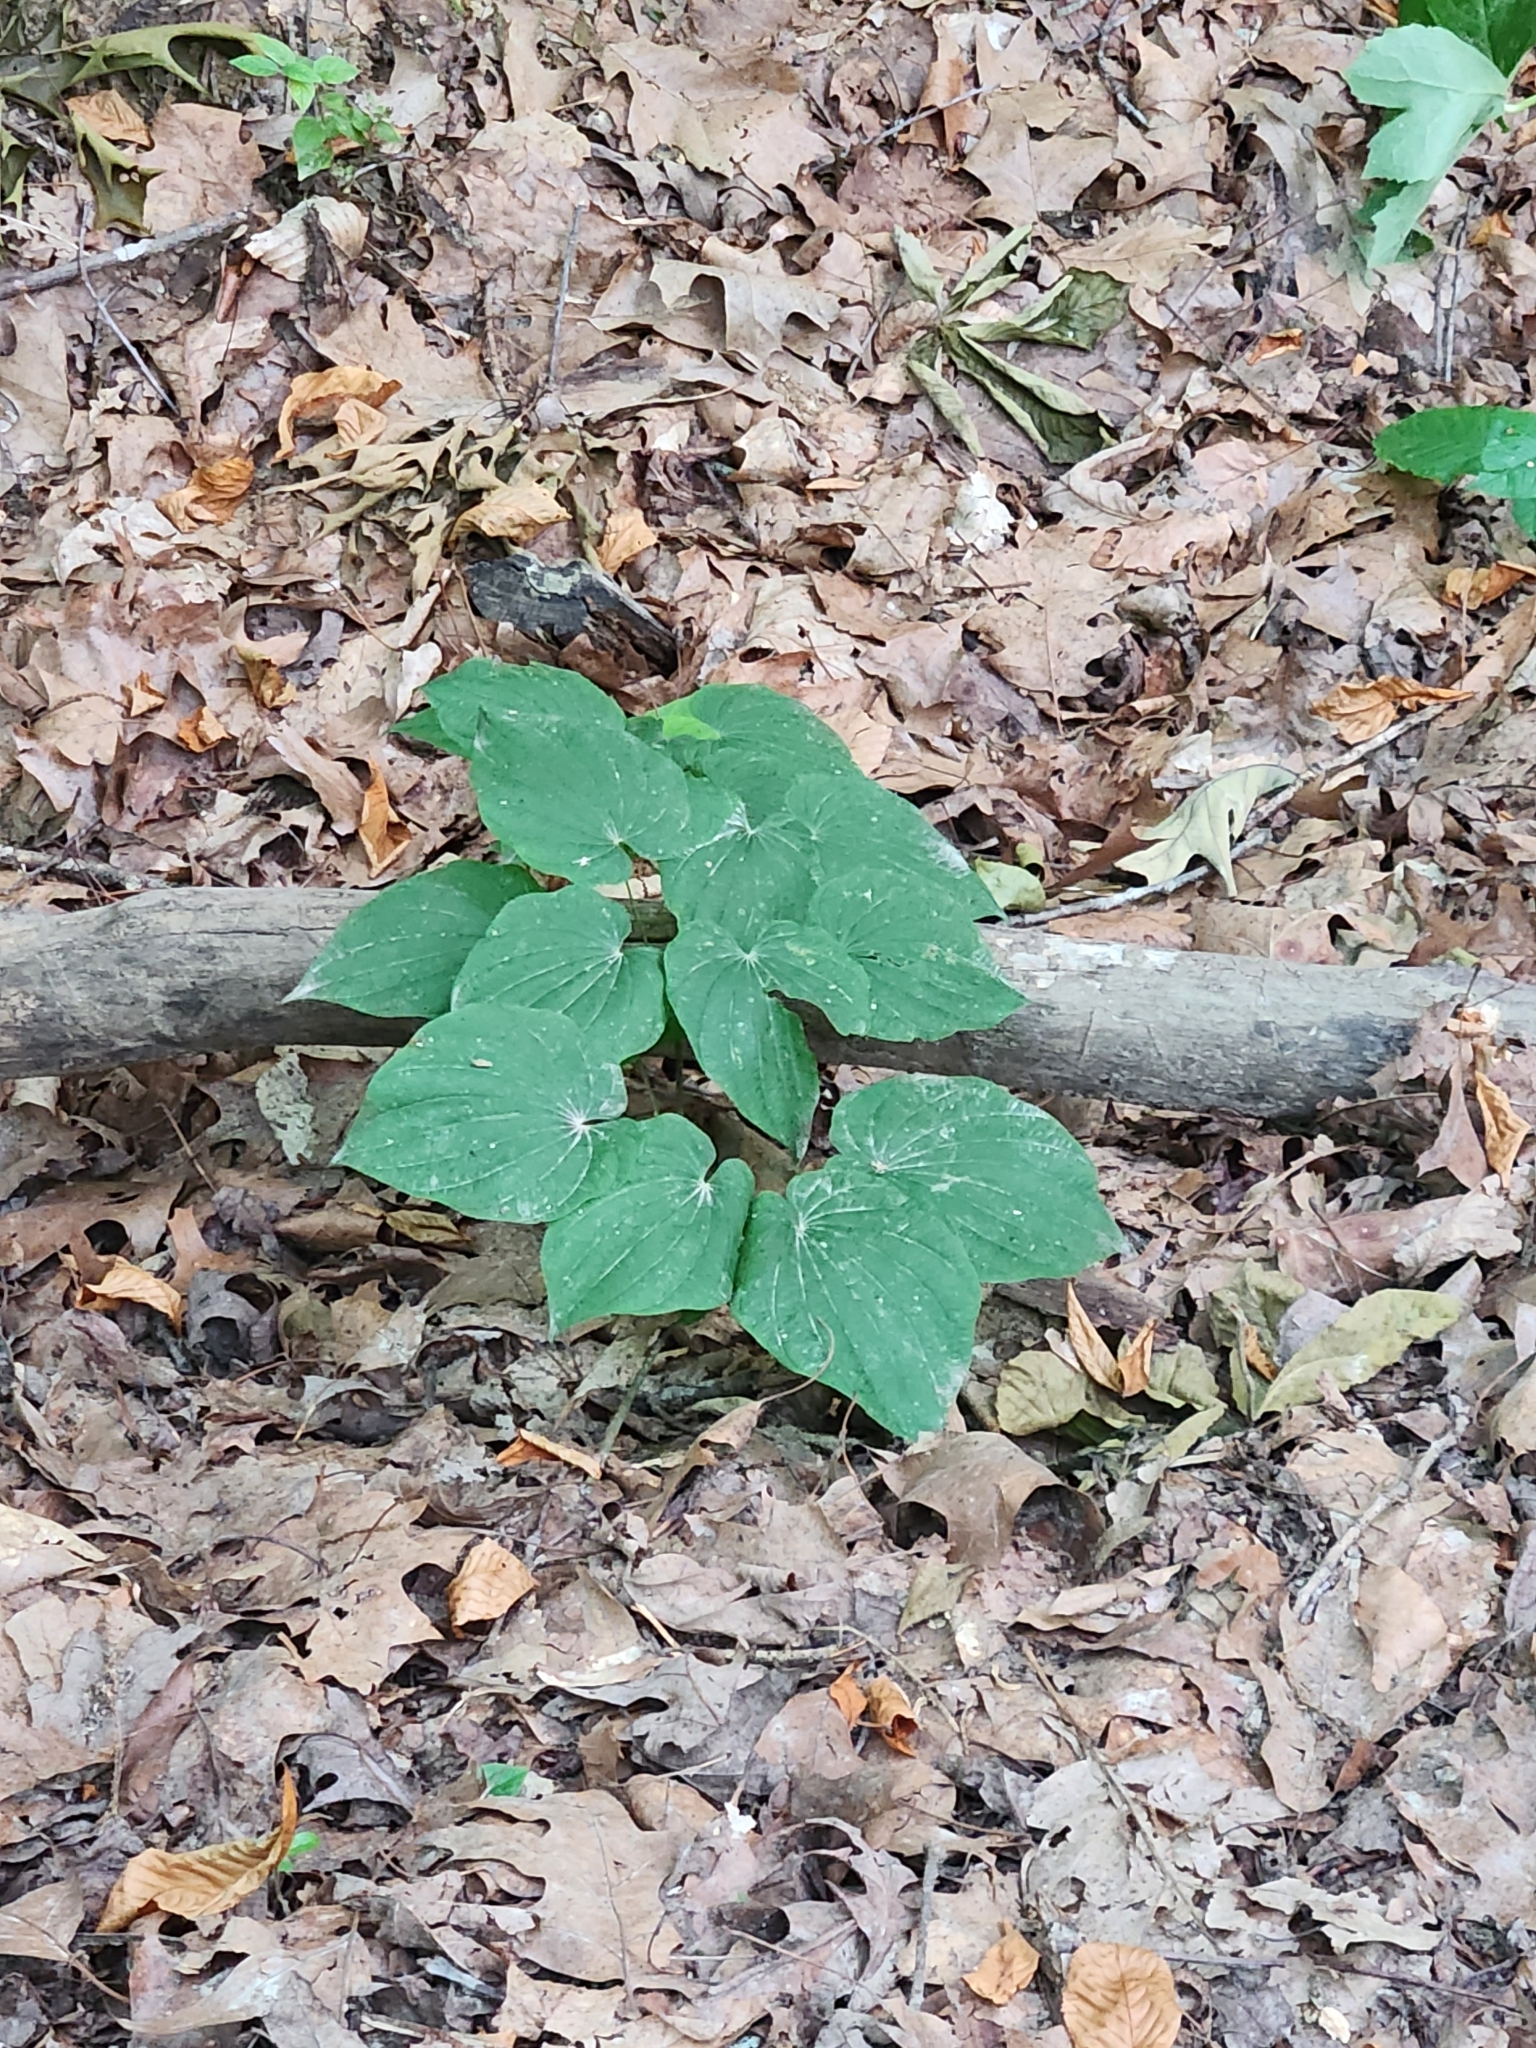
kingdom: Plantae
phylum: Tracheophyta
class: Liliopsida
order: Dioscoreales
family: Dioscoreaceae
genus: Dioscorea
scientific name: Dioscorea villosa
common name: Wild yam
